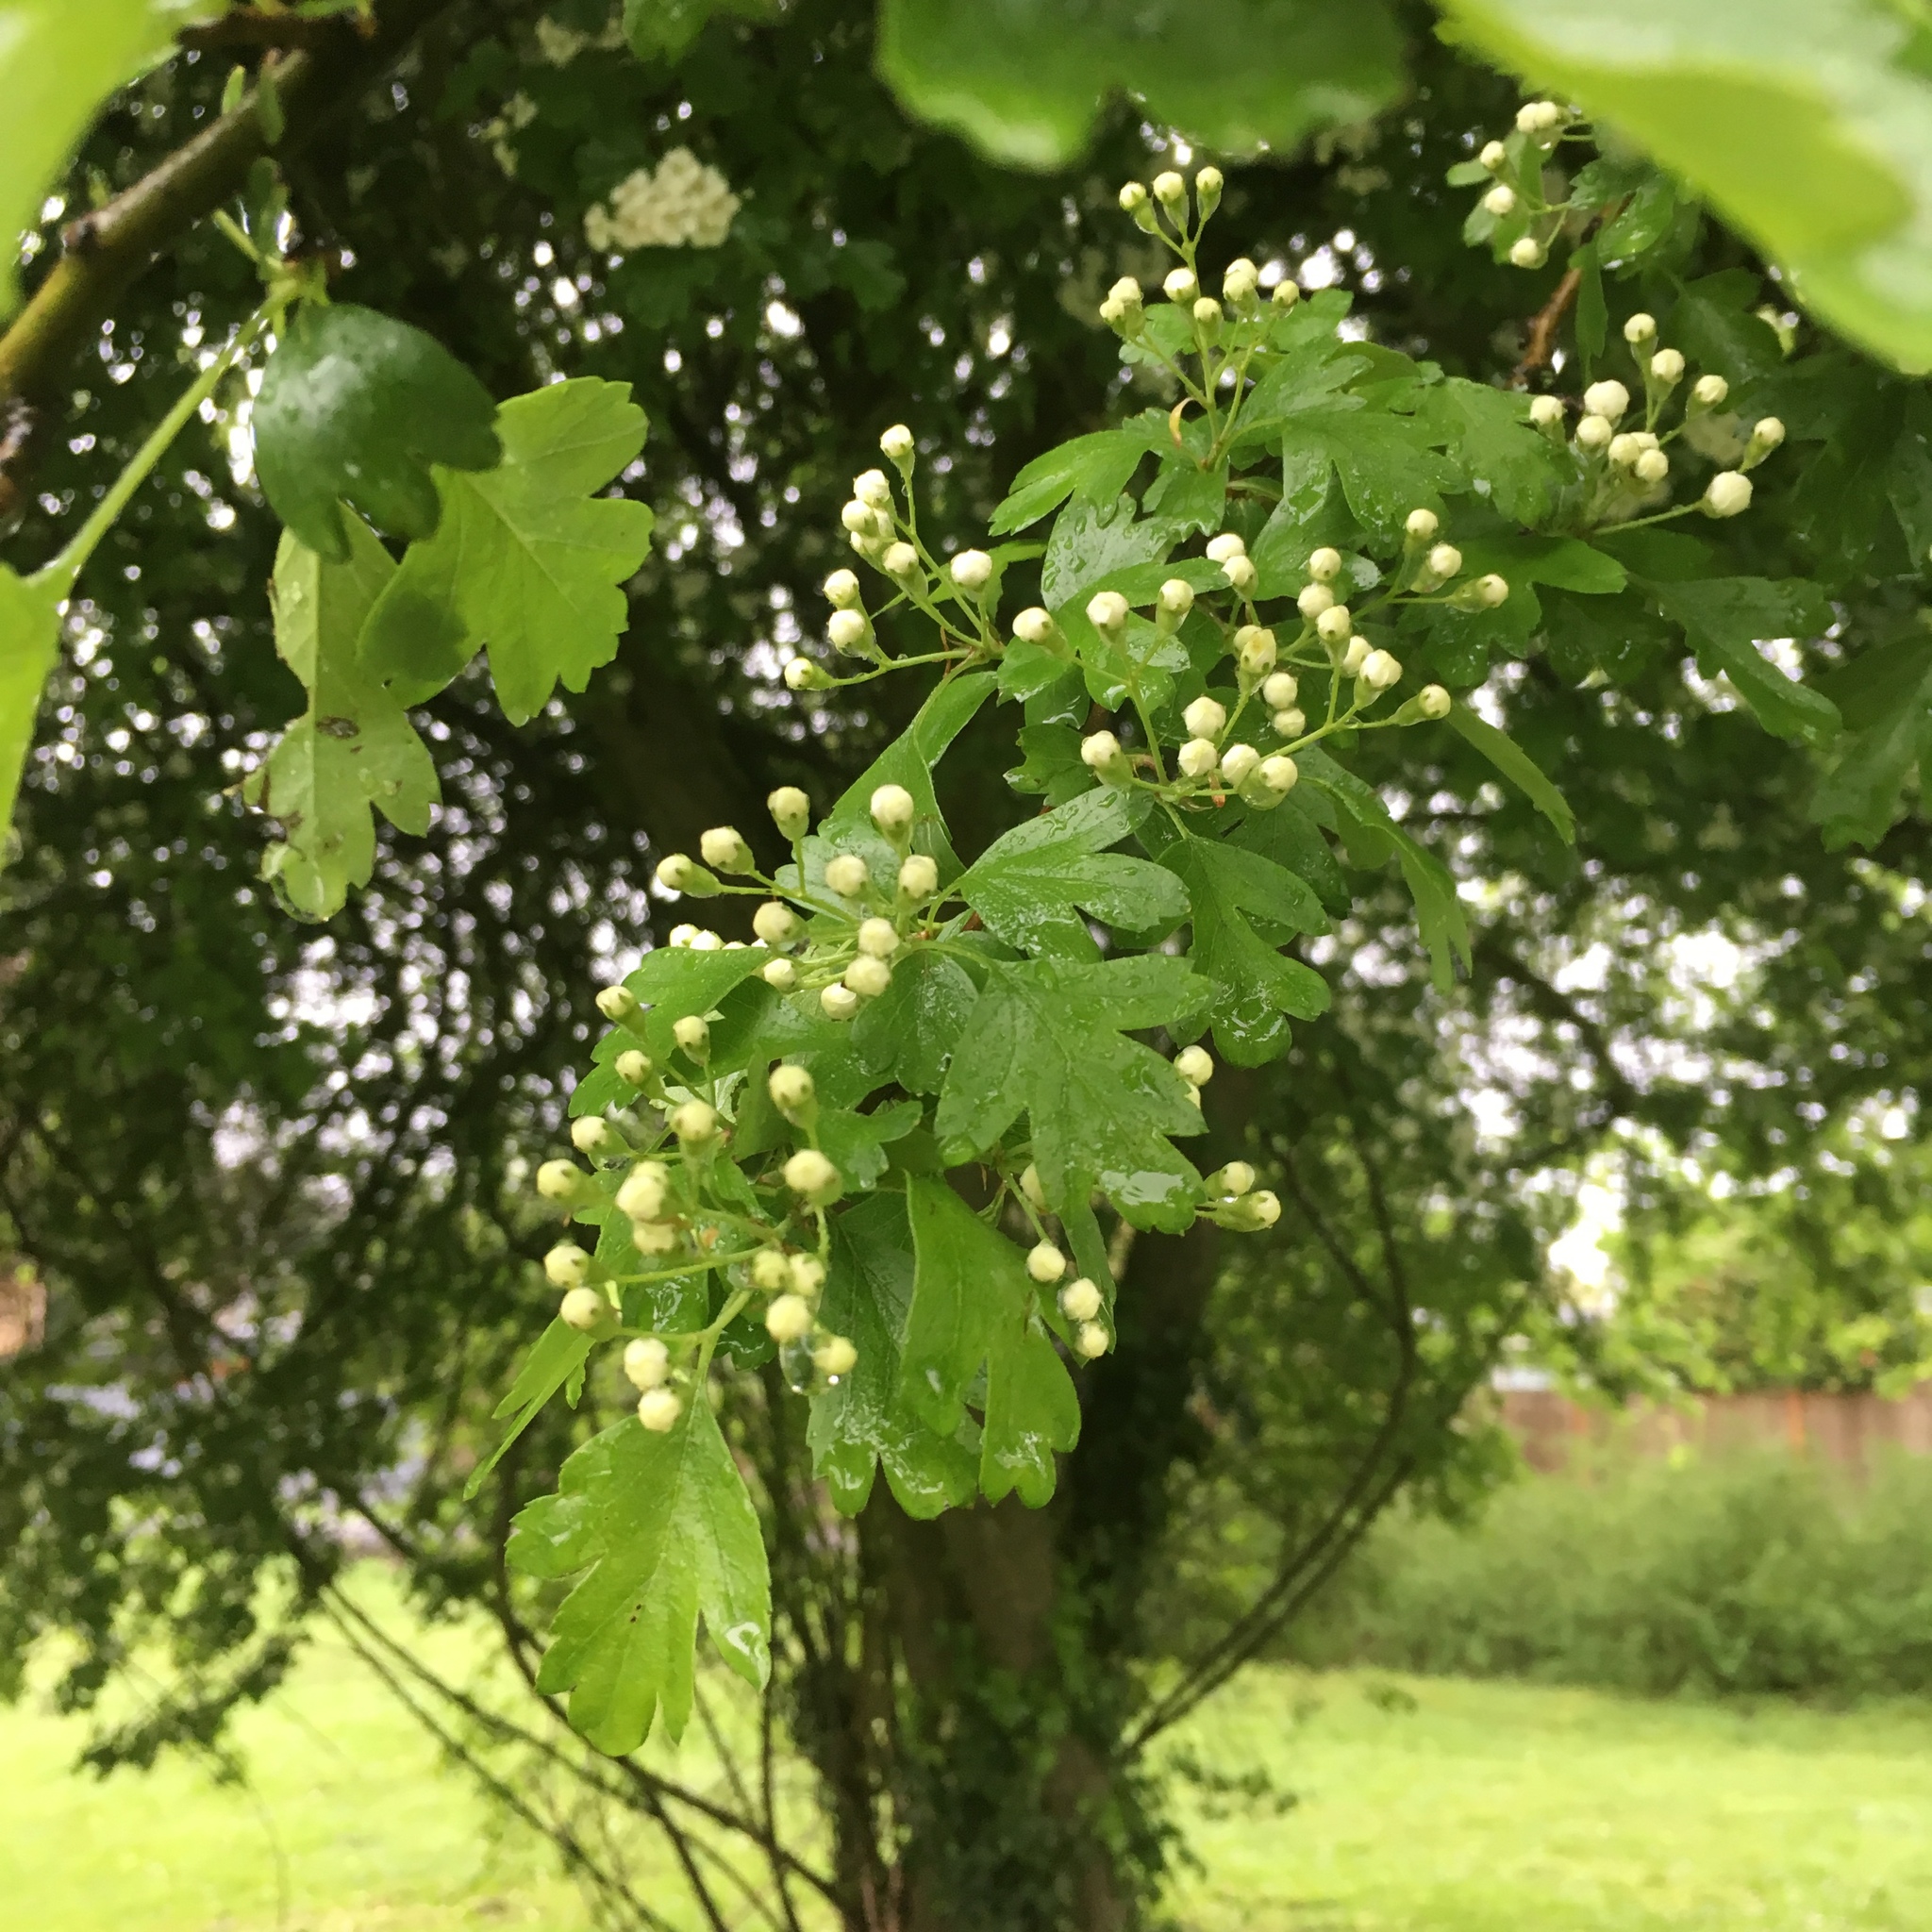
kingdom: Plantae
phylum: Tracheophyta
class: Magnoliopsida
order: Rosales
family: Rosaceae
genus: Crataegus
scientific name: Crataegus monogyna
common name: Hawthorn
